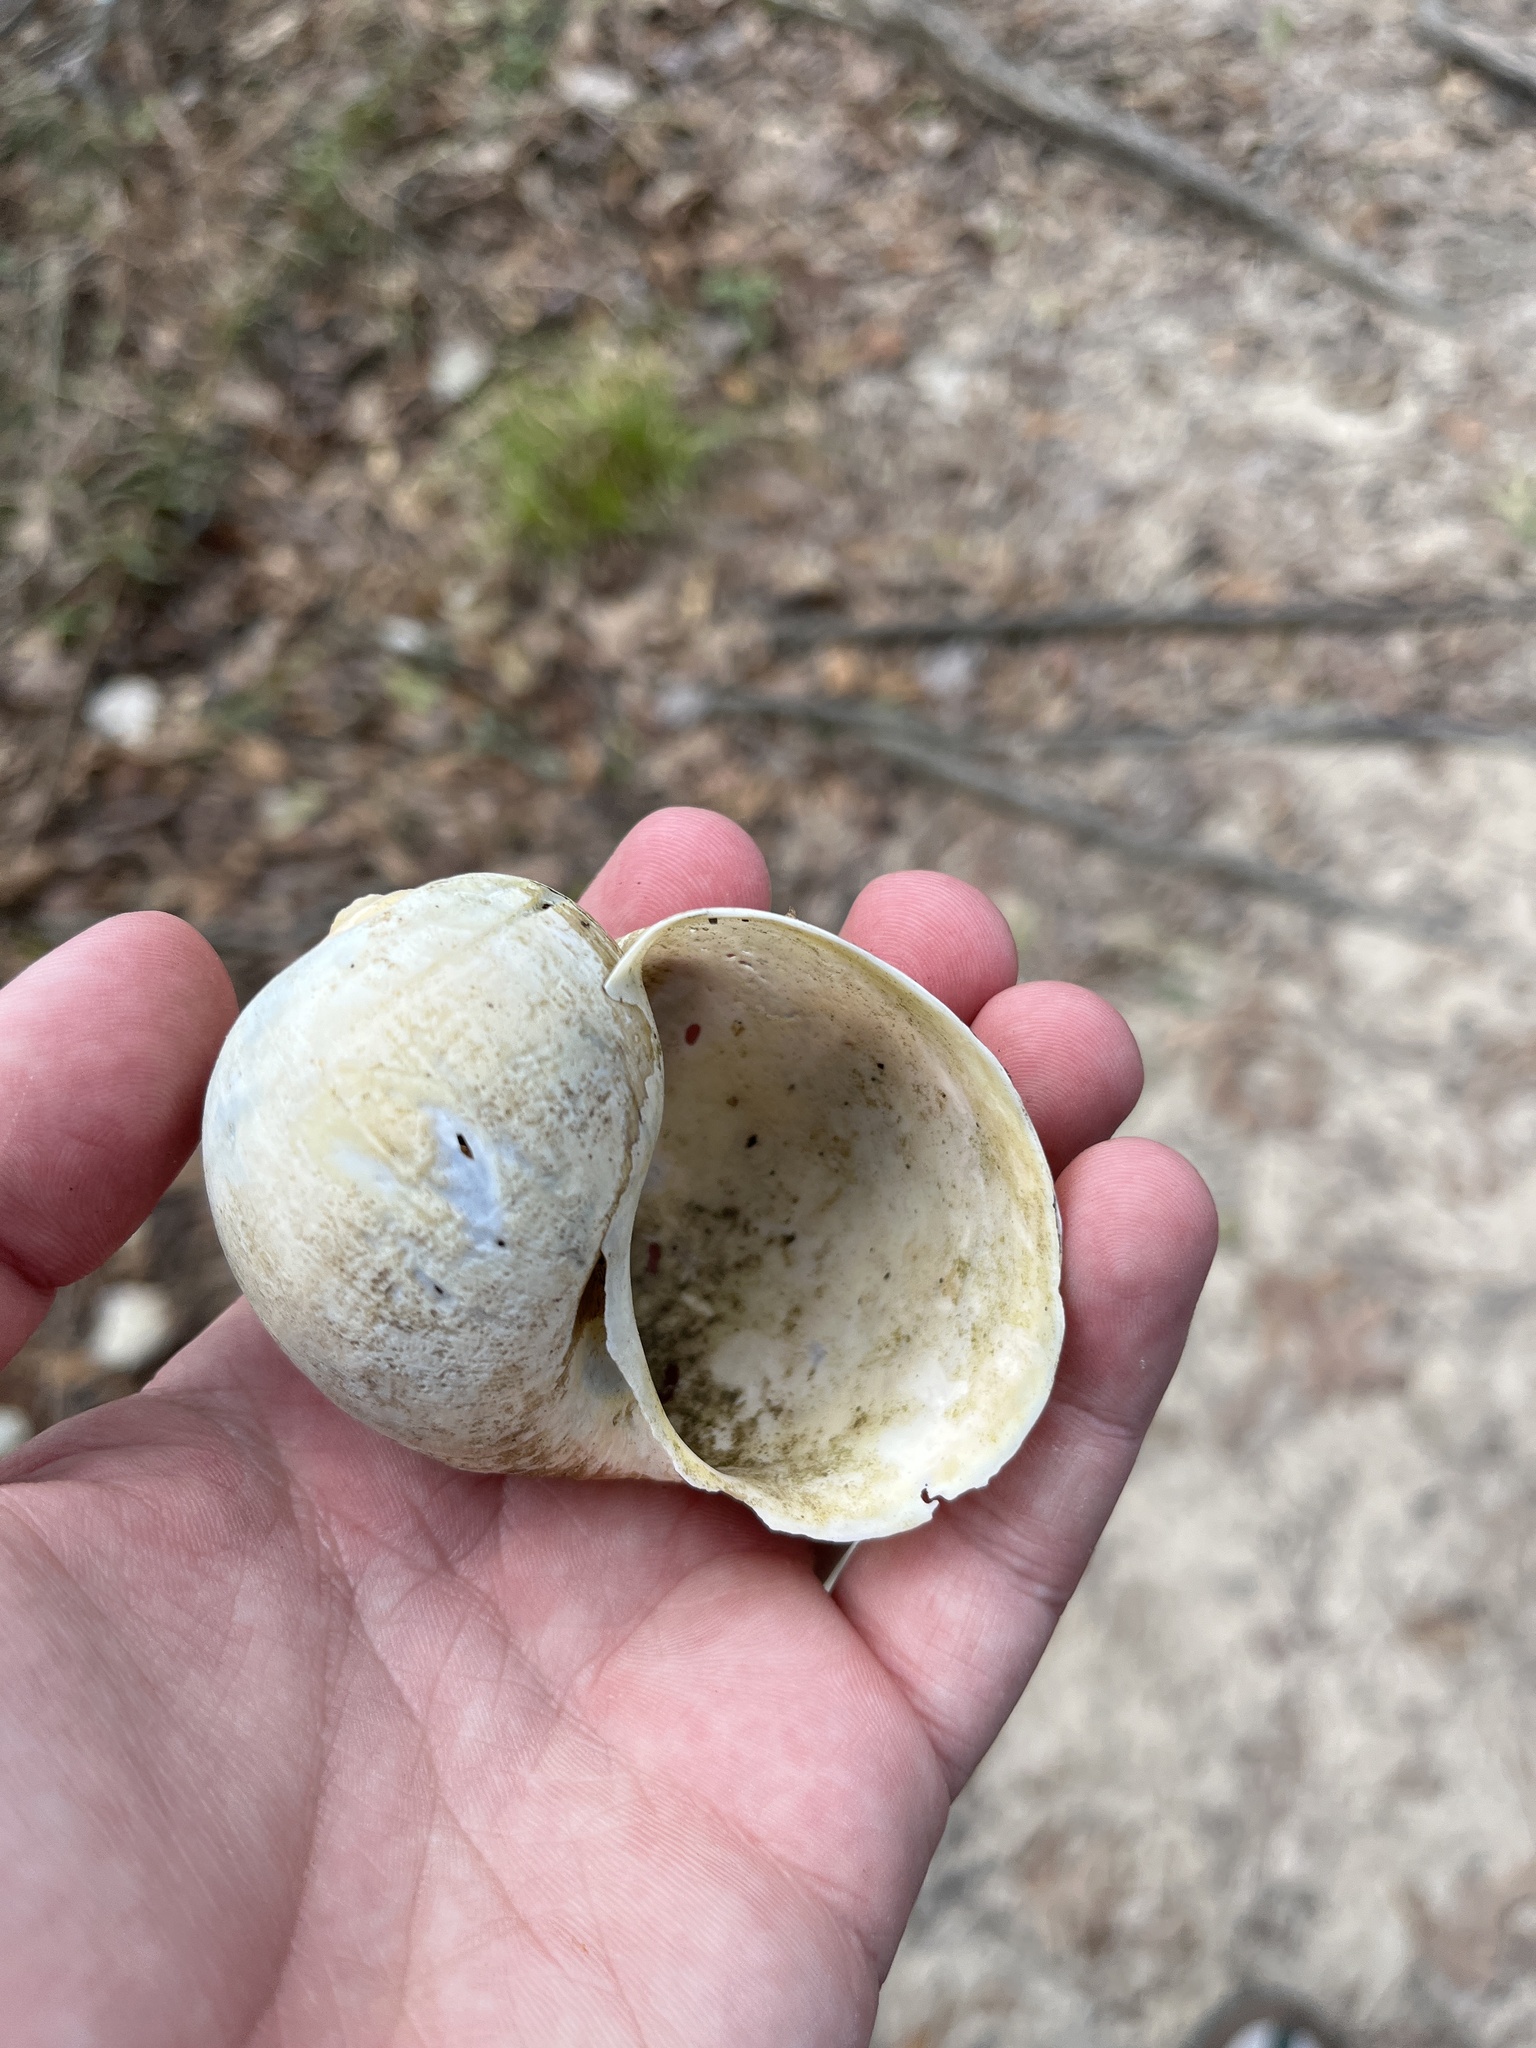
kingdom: Animalia
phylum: Mollusca
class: Gastropoda
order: Architaenioglossa
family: Ampullariidae
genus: Pomacea
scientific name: Pomacea maculata
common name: Giant applesnail
